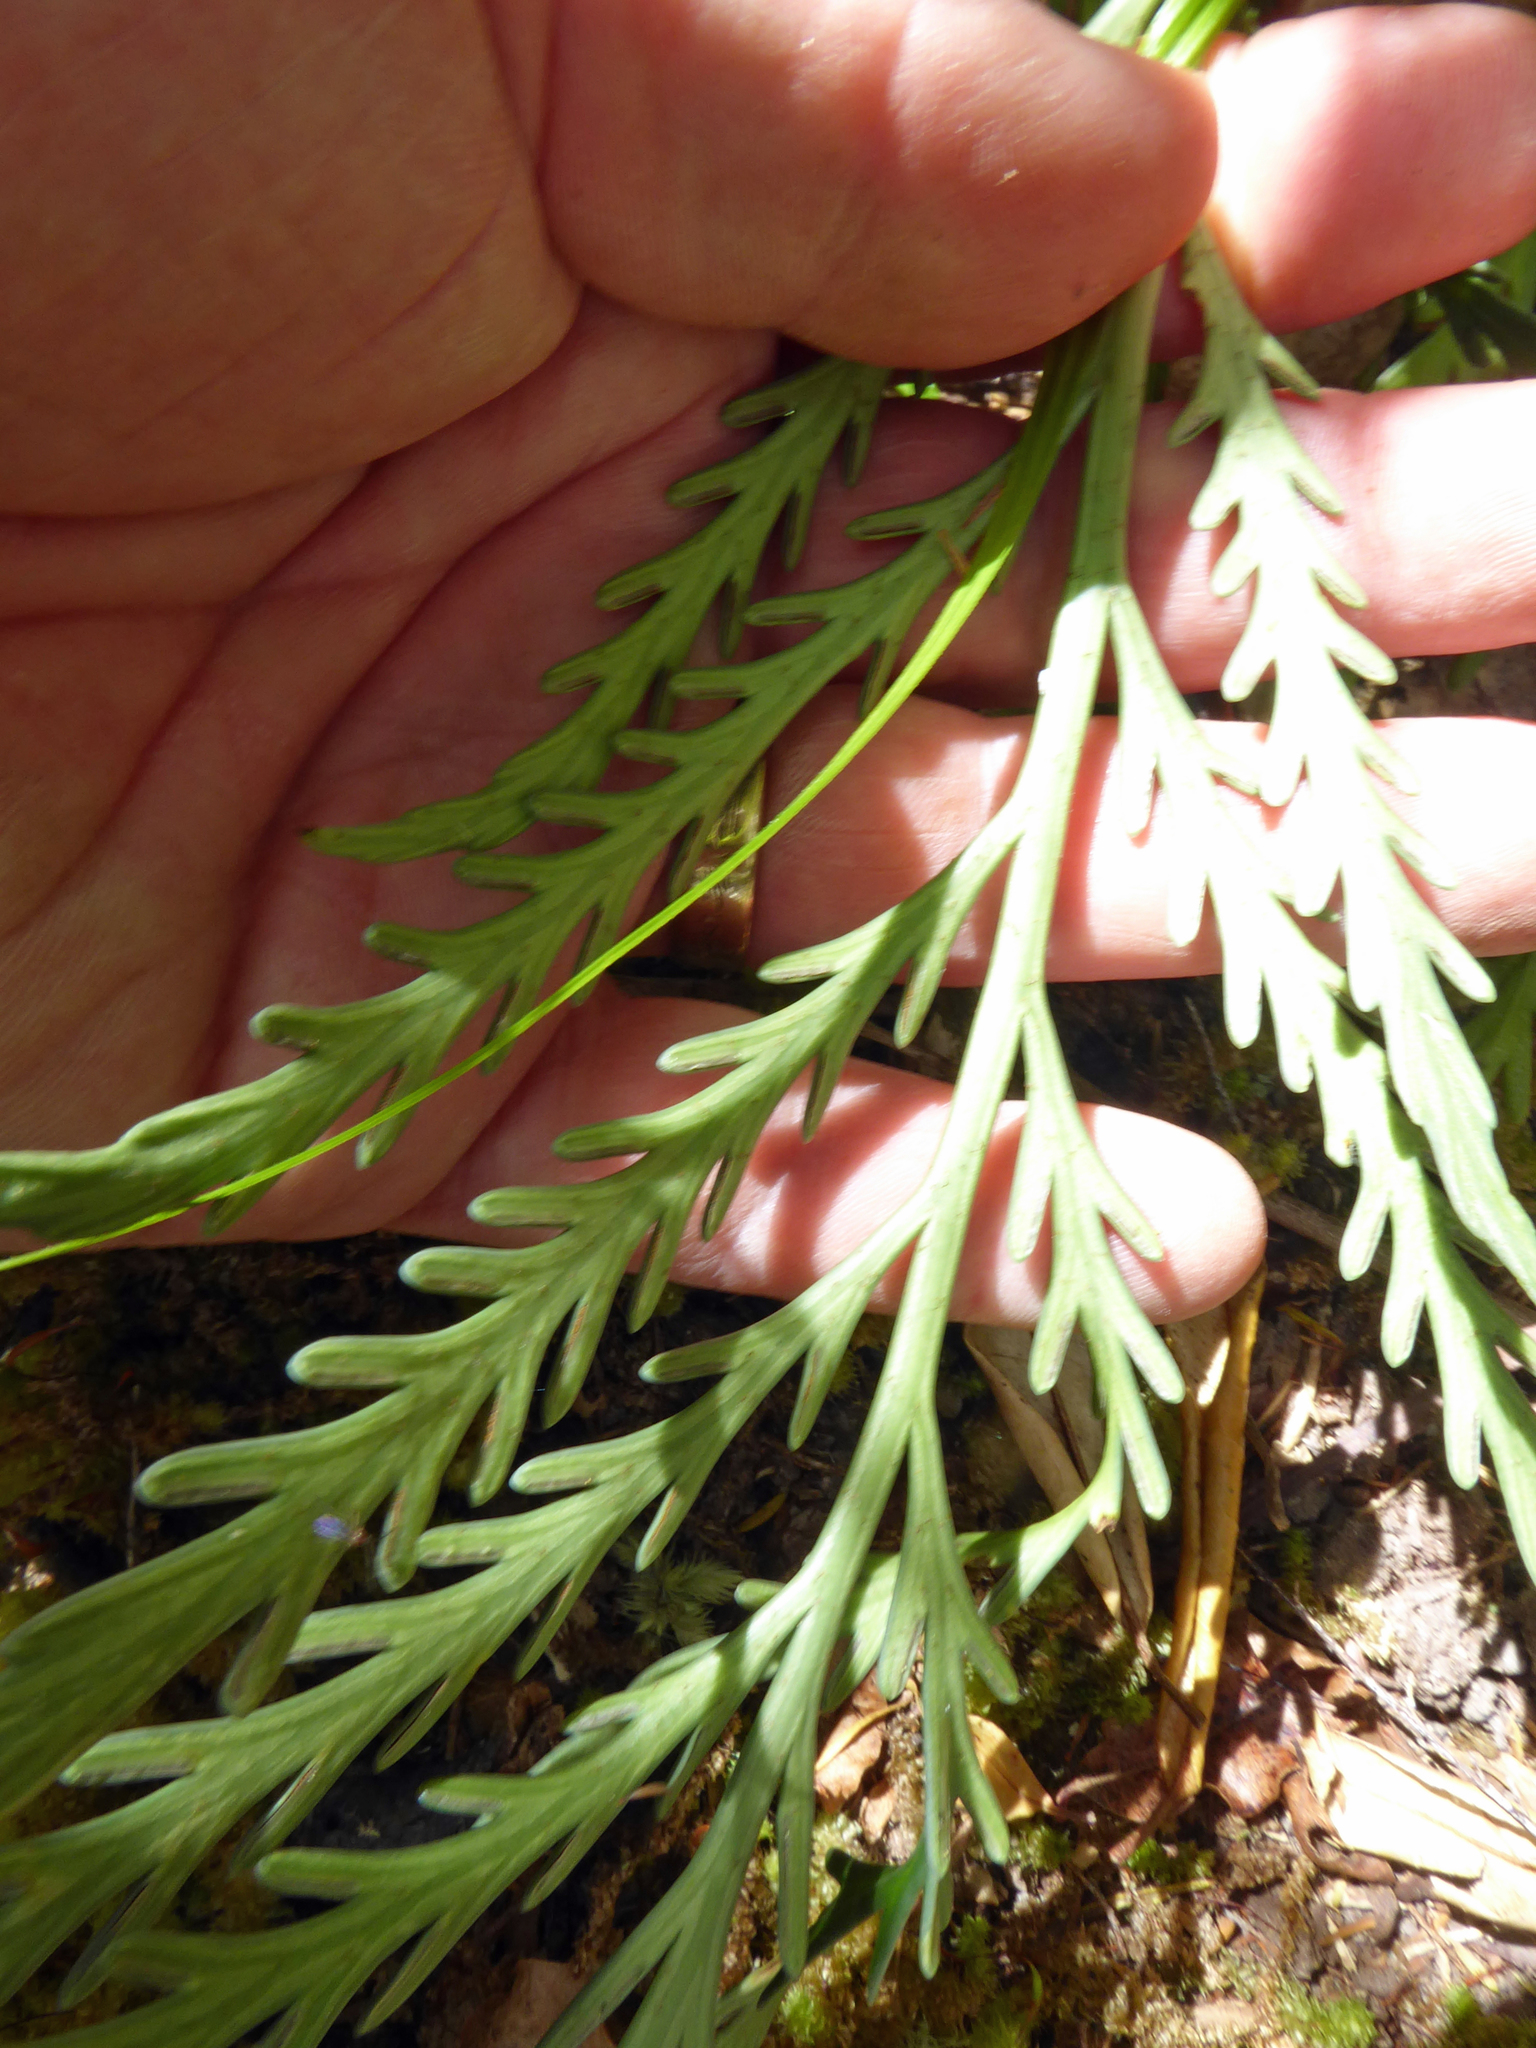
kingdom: Plantae
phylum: Tracheophyta
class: Polypodiopsida
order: Polypodiales
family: Aspleniaceae
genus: Asplenium
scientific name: Asplenium flaccidum
